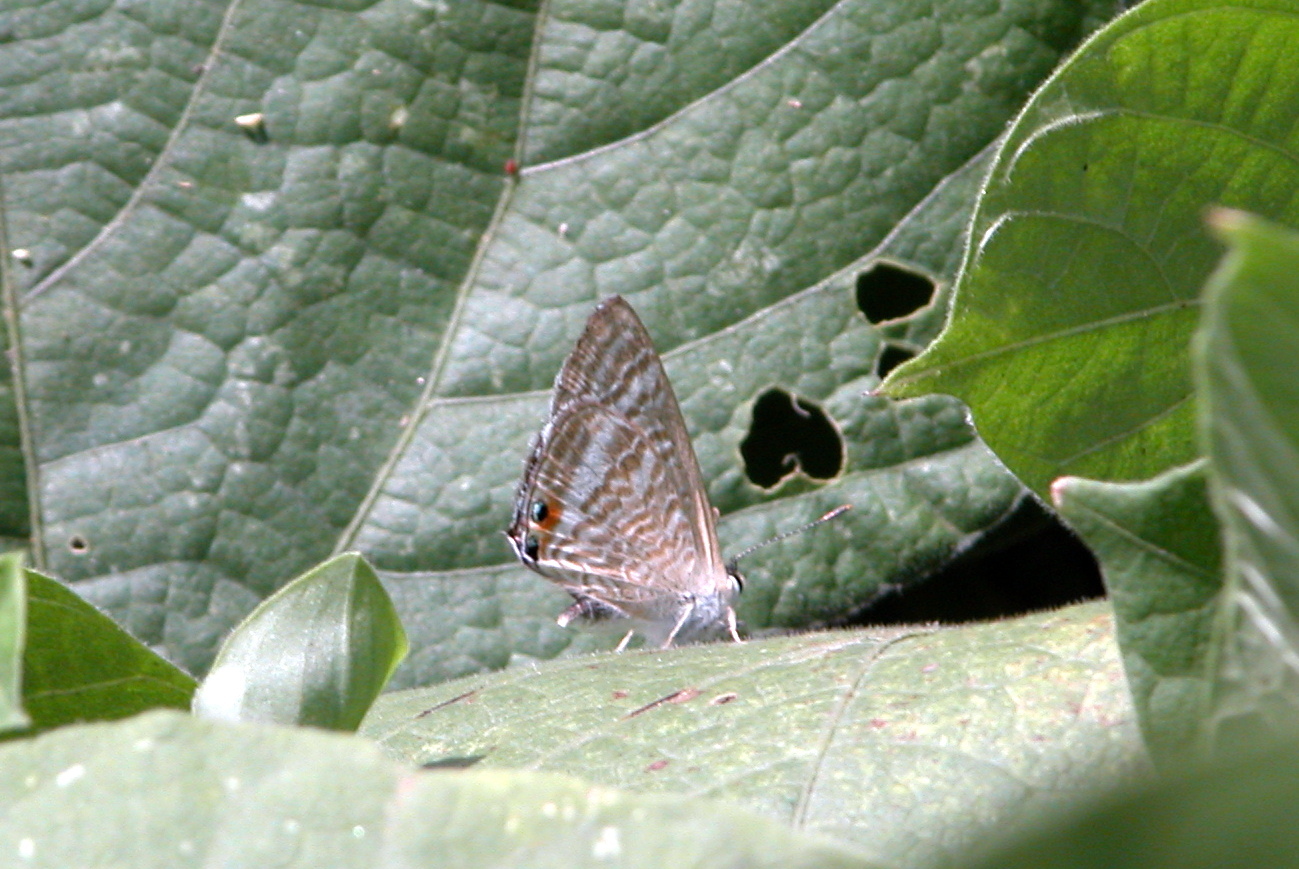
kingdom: Animalia
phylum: Arthropoda
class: Insecta
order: Lepidoptera
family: Lycaenidae
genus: Lampides
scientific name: Lampides boeticus
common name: Long-tailed blue
